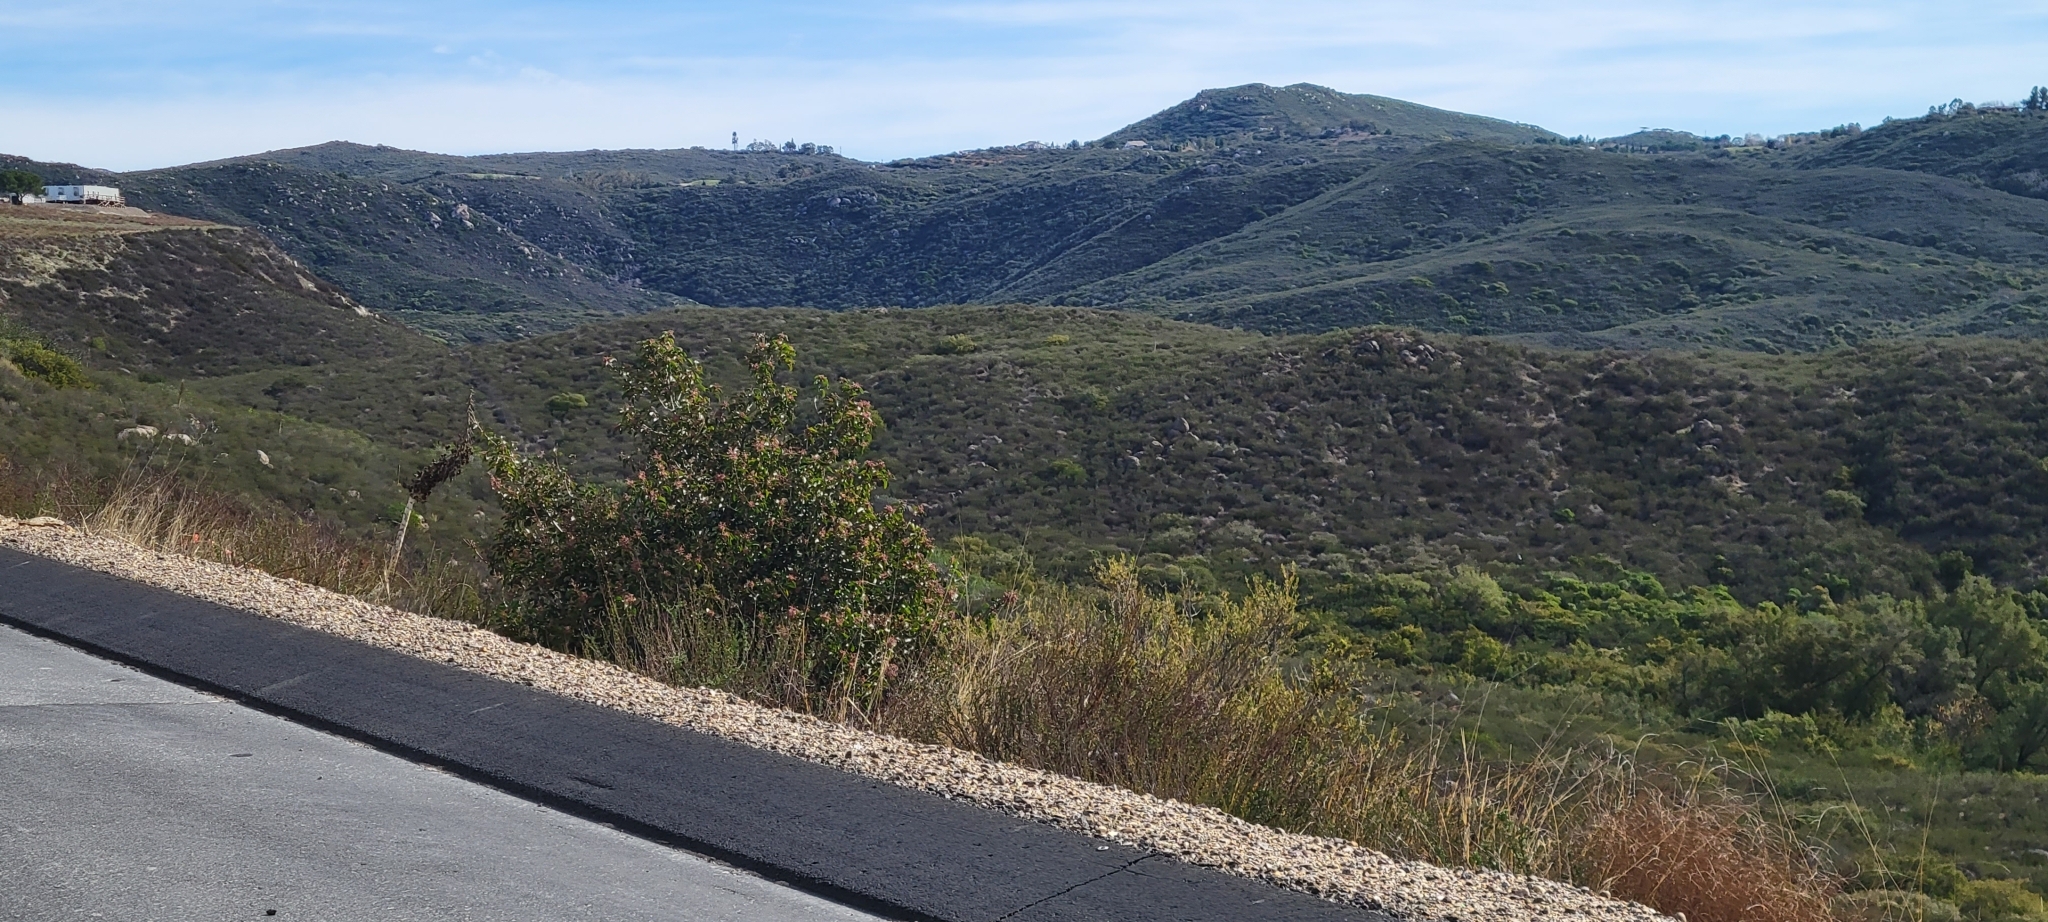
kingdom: Plantae
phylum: Tracheophyta
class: Magnoliopsida
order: Sapindales
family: Anacardiaceae
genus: Rhus
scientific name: Rhus ovata
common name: Sugar sumac
